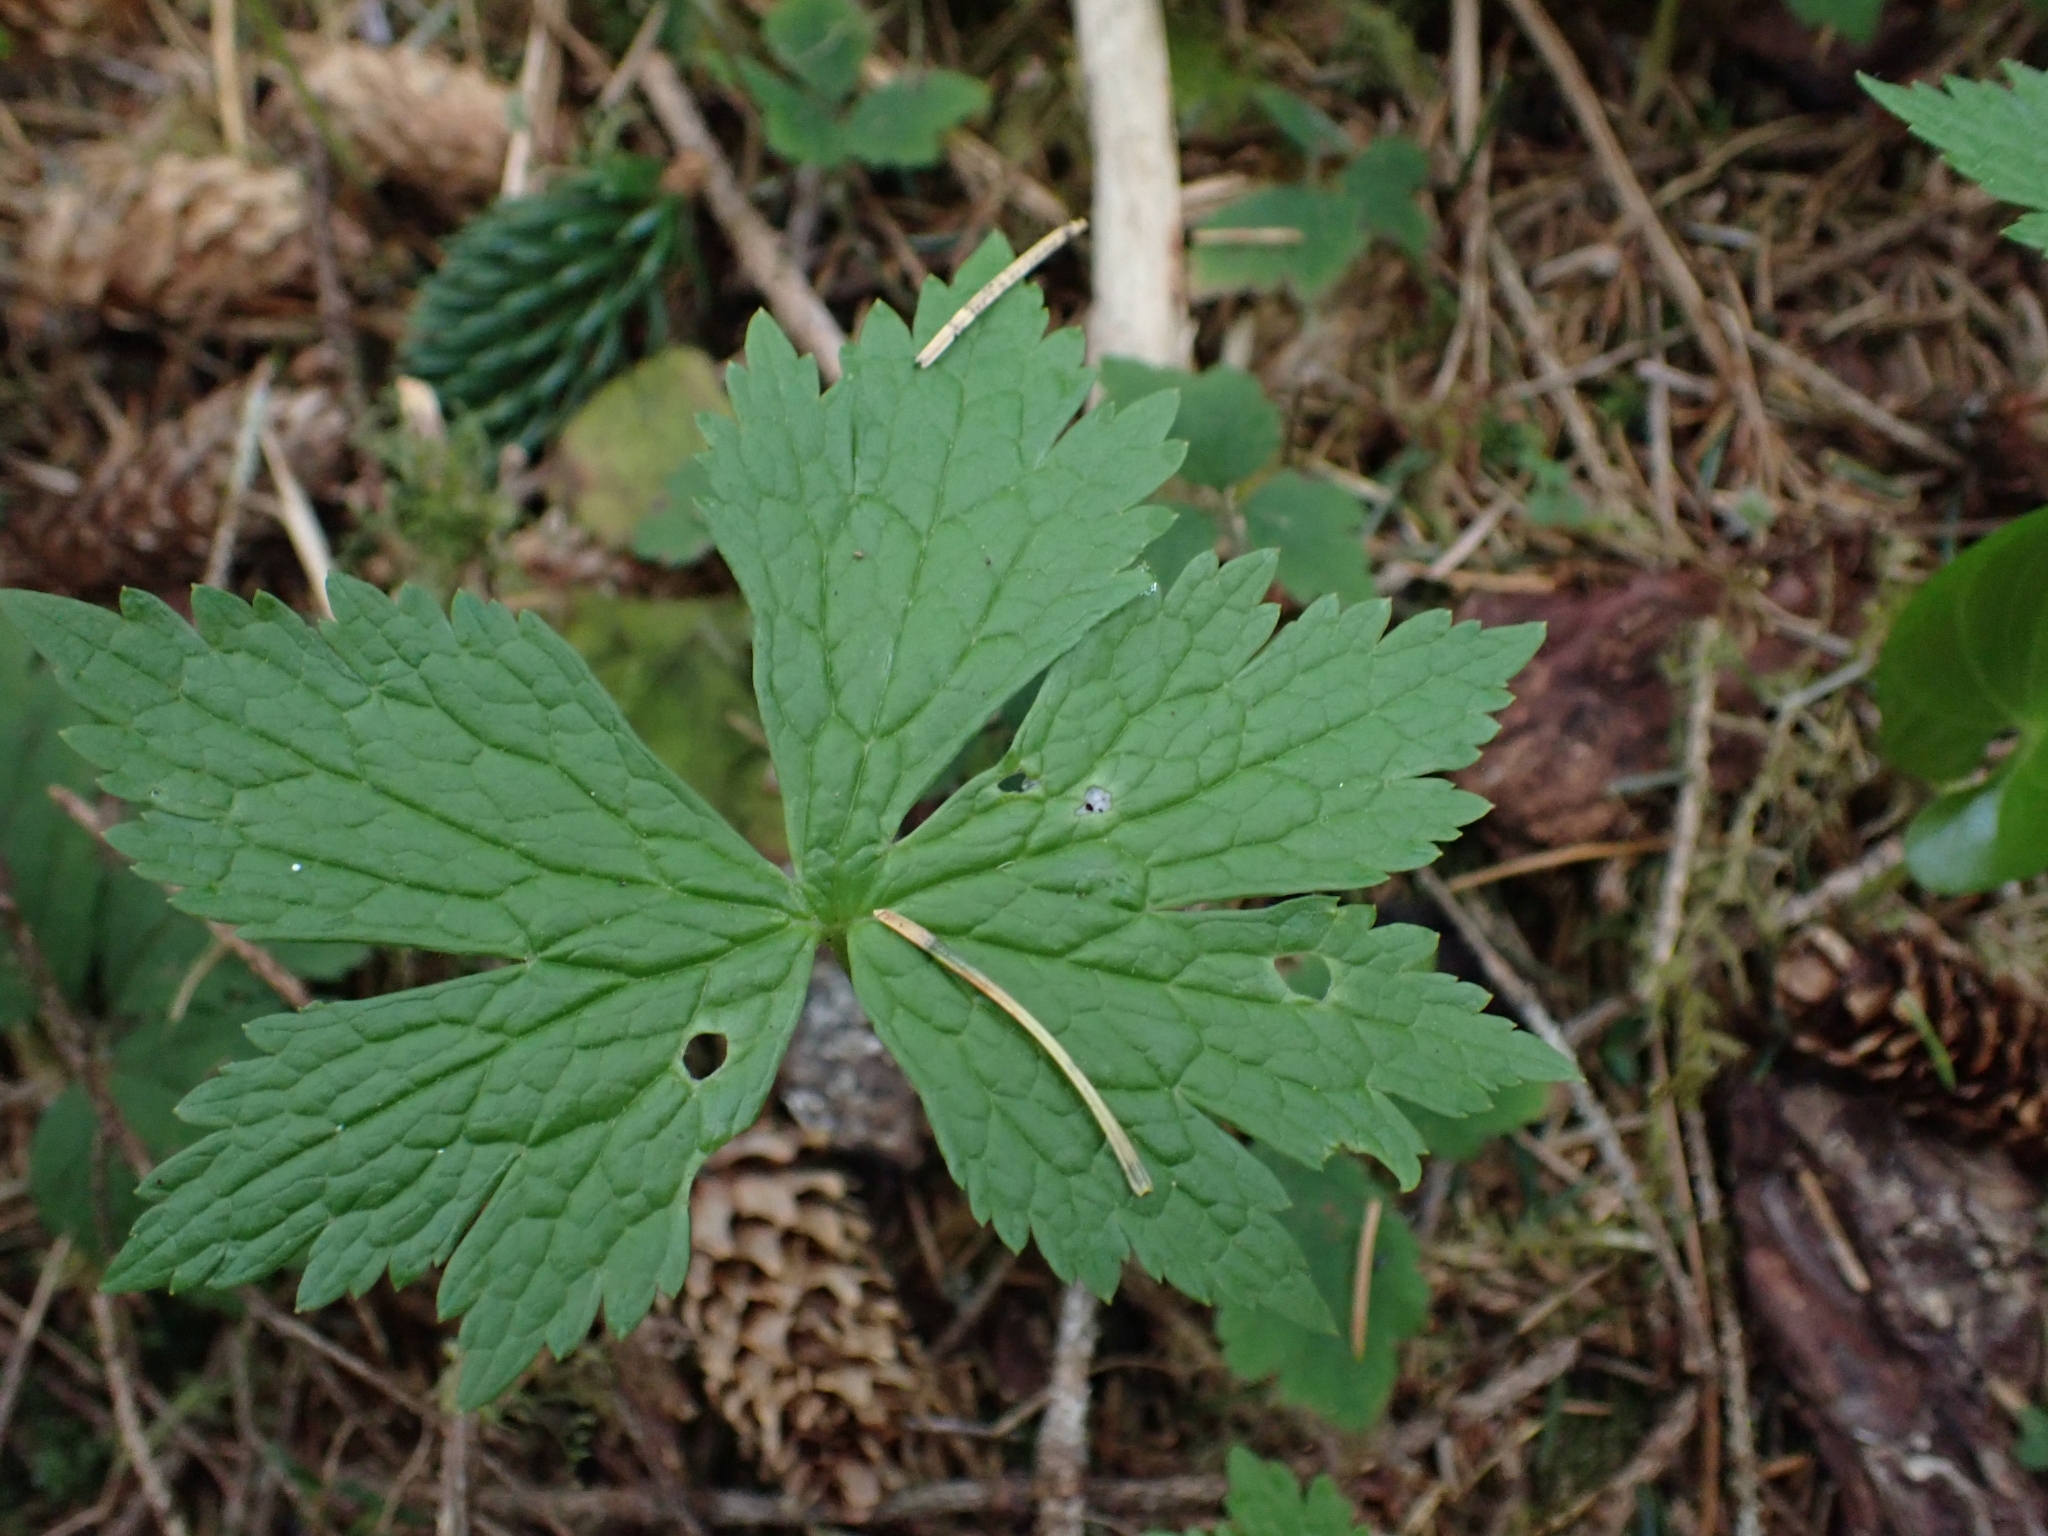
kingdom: Plantae
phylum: Tracheophyta
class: Magnoliopsida
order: Ranunculales
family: Ranunculaceae
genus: Trautvetteria
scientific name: Trautvetteria carolinensis
